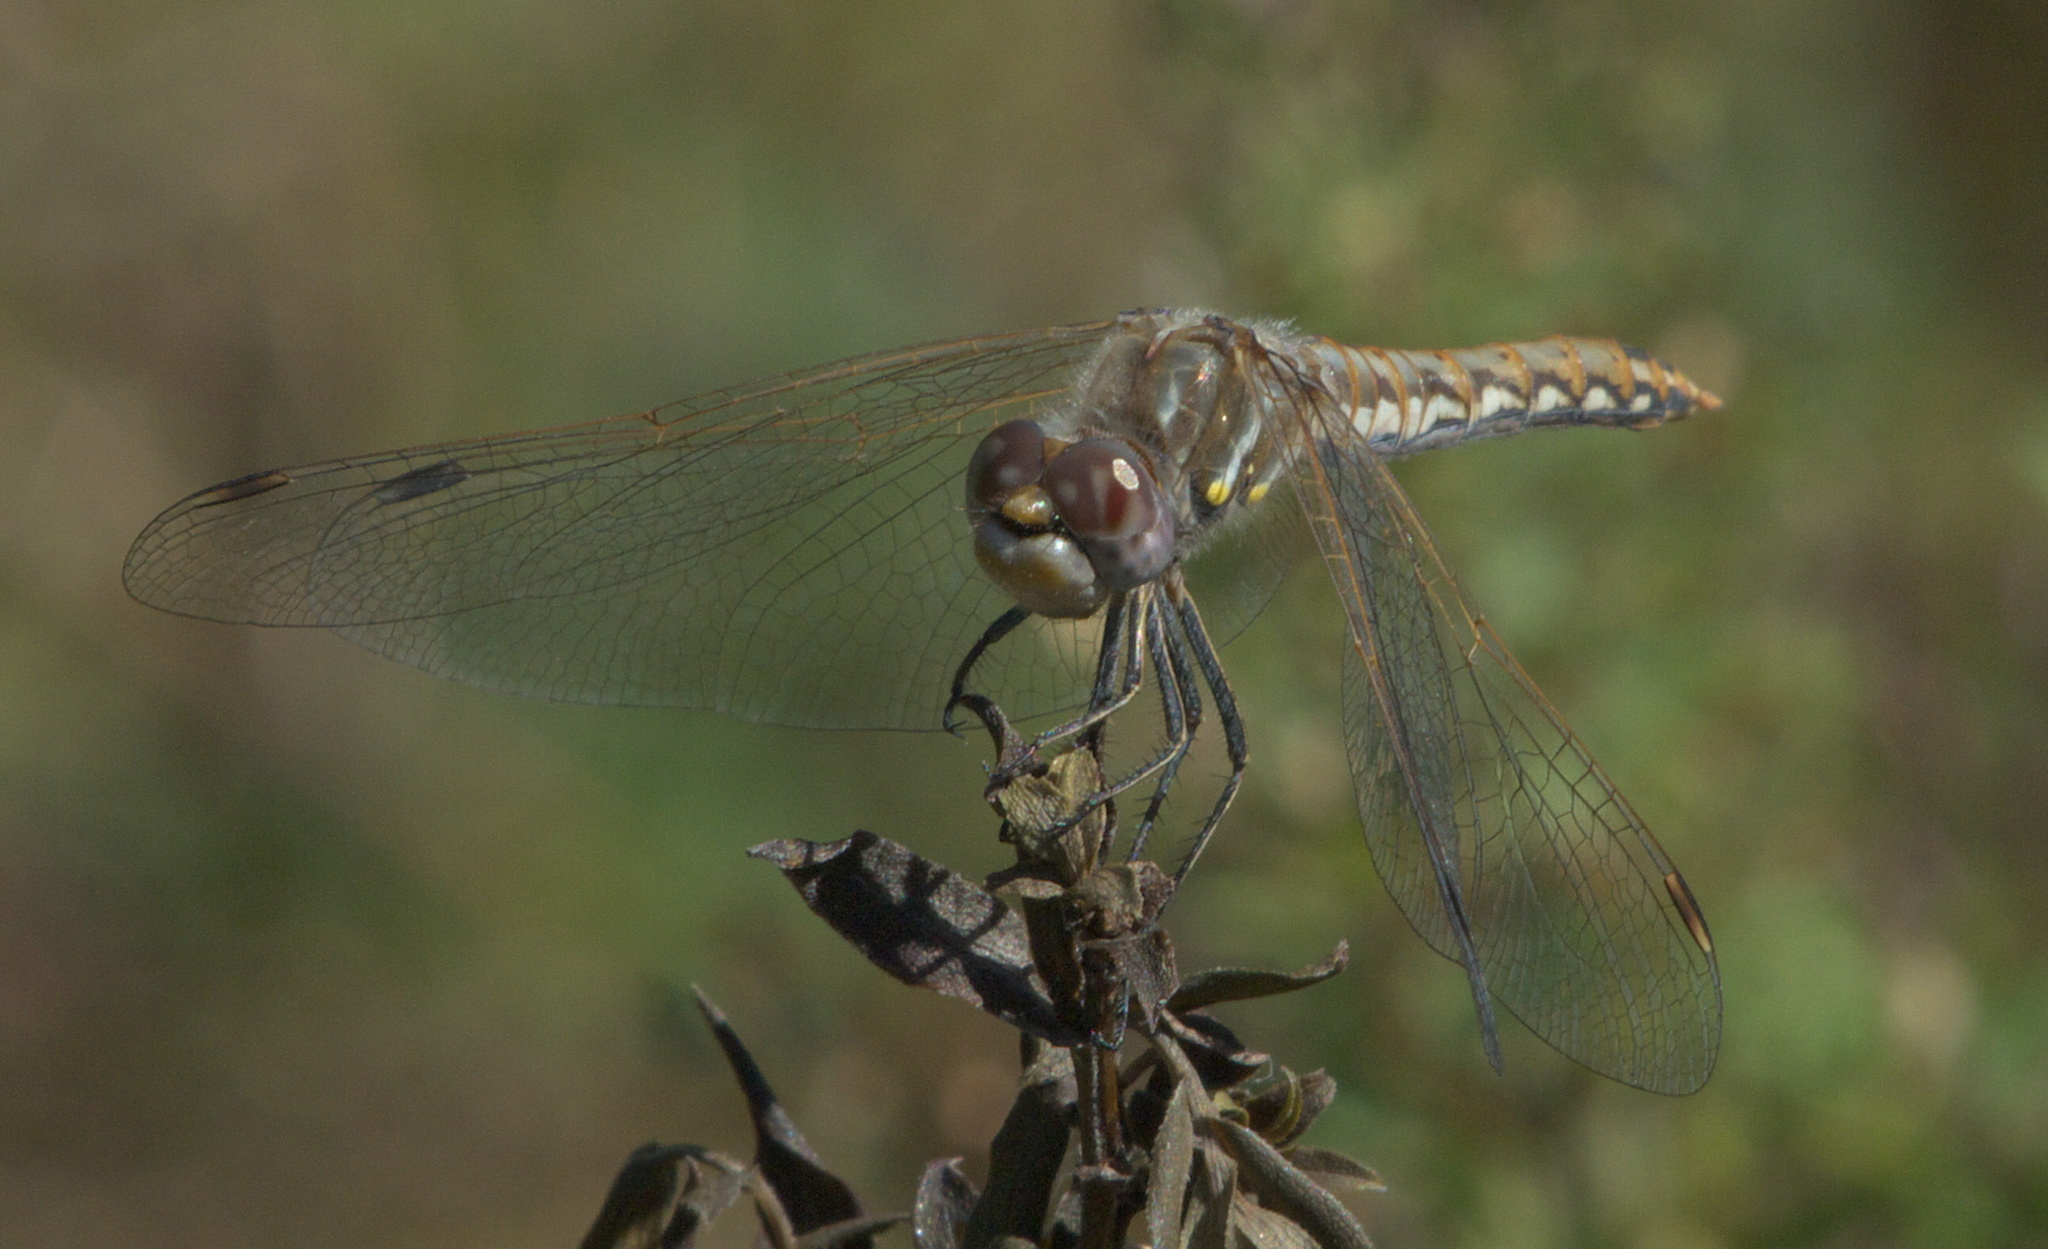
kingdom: Animalia
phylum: Arthropoda
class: Insecta
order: Odonata
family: Libellulidae
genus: Sympetrum
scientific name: Sympetrum corruptum
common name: Variegated meadowhawk
